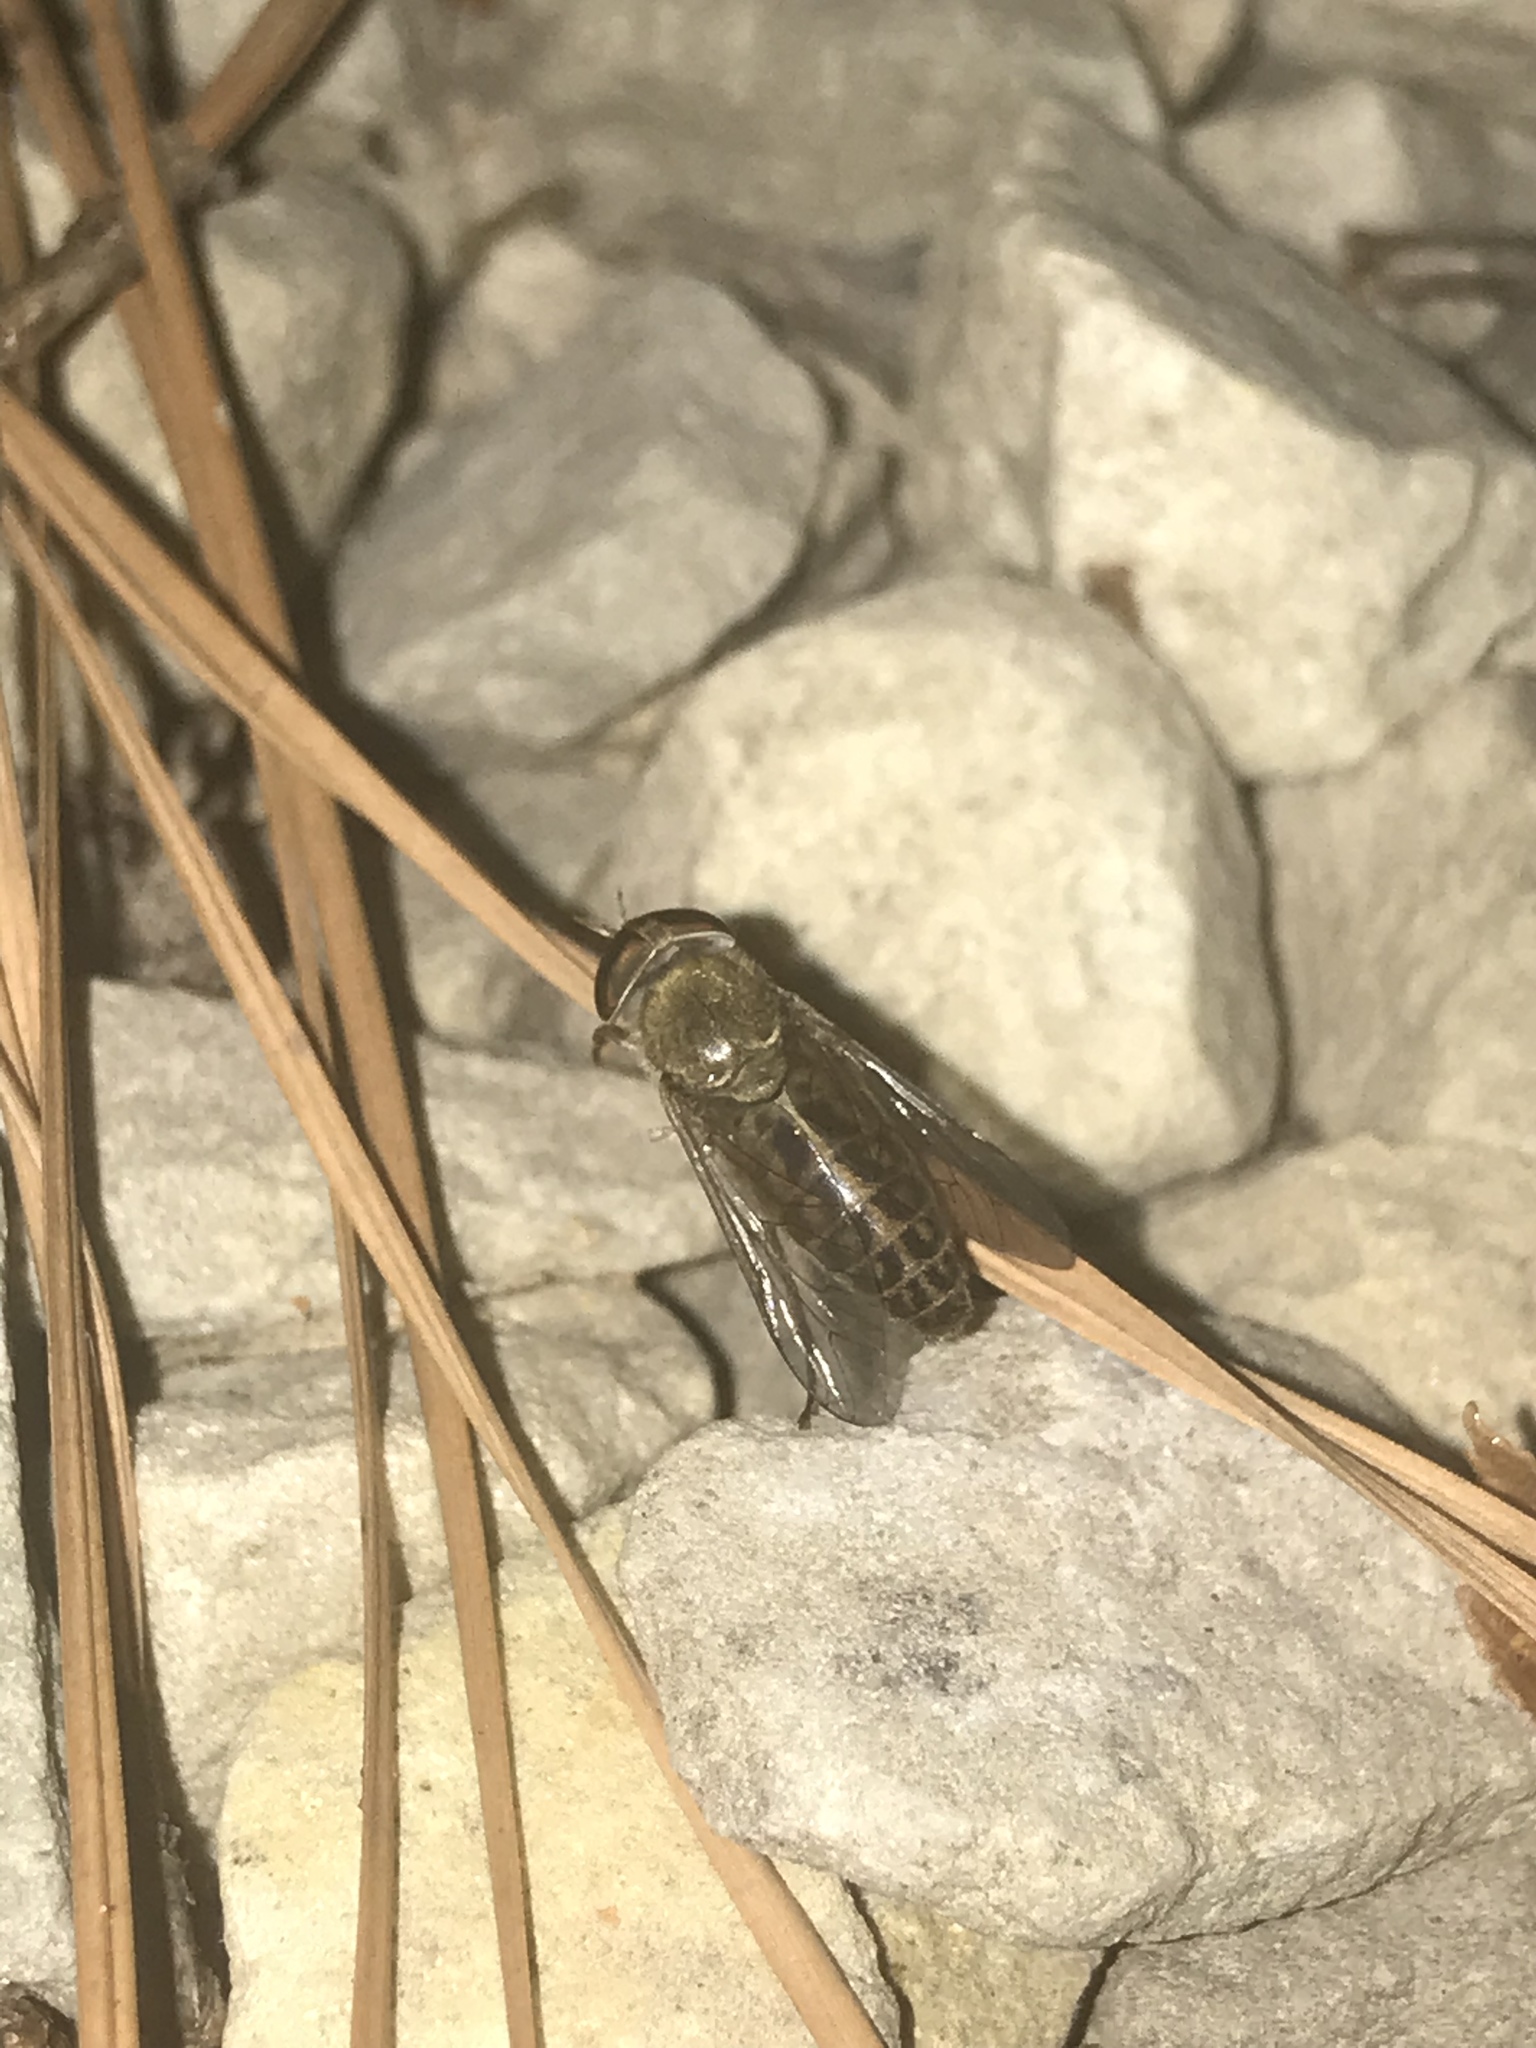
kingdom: Animalia
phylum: Arthropoda
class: Insecta
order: Diptera
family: Tabanidae
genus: Tabanus
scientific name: Tabanus zythicolor
